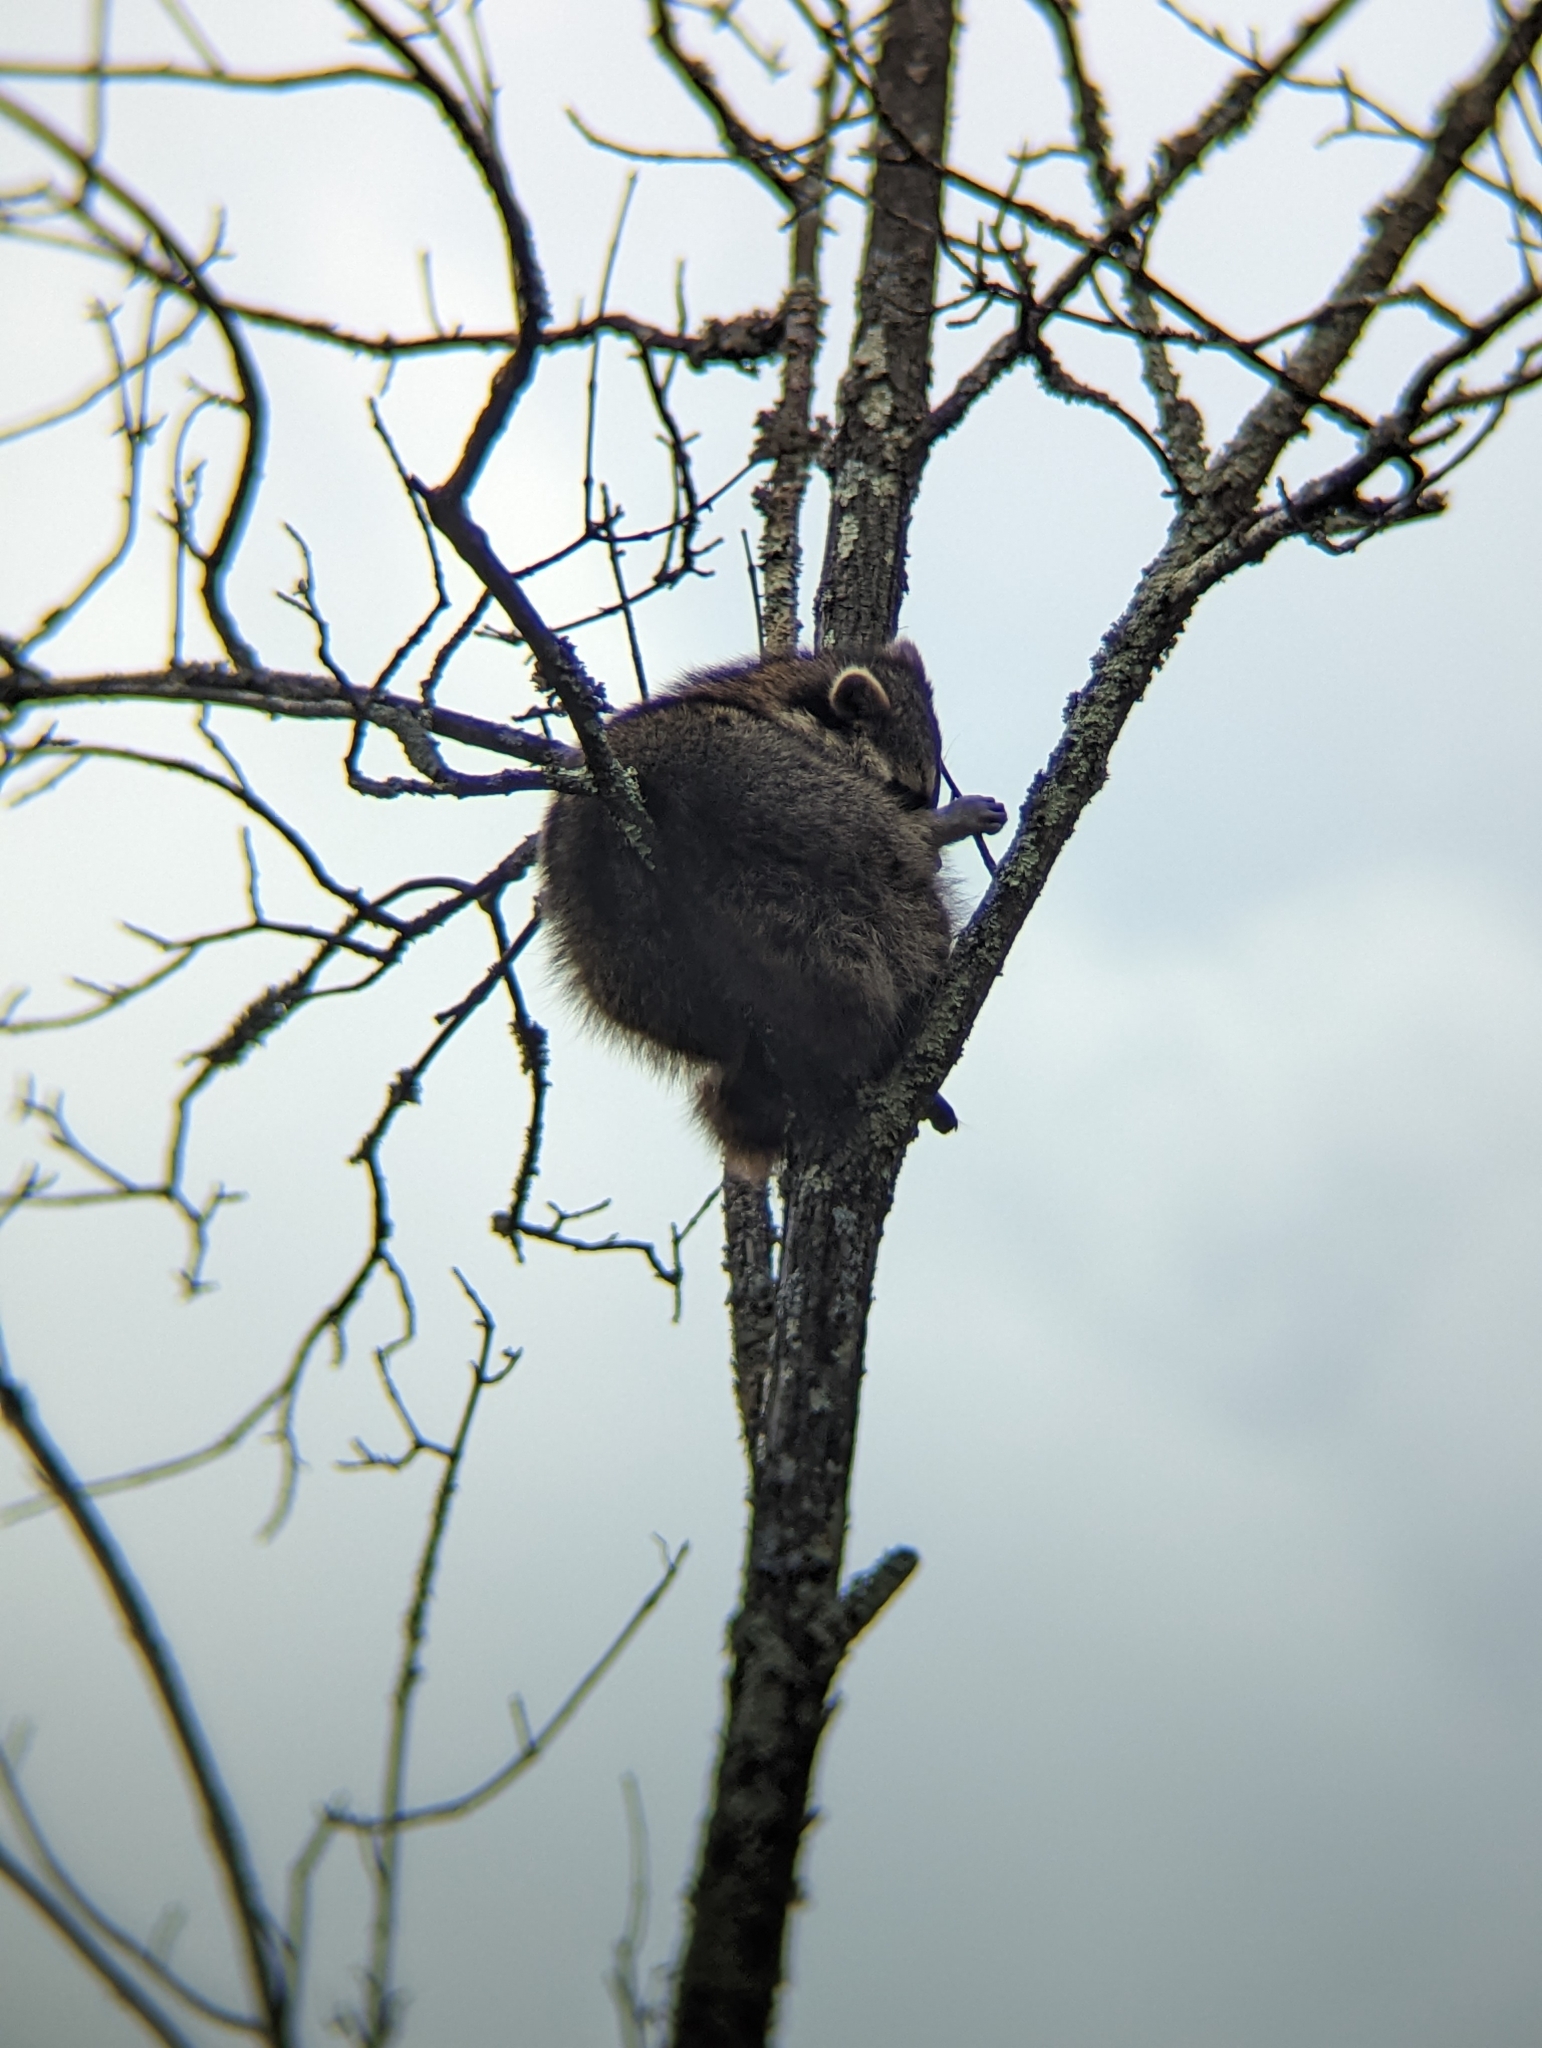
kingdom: Animalia
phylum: Chordata
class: Mammalia
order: Carnivora
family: Procyonidae
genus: Procyon
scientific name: Procyon lotor
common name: Raccoon
